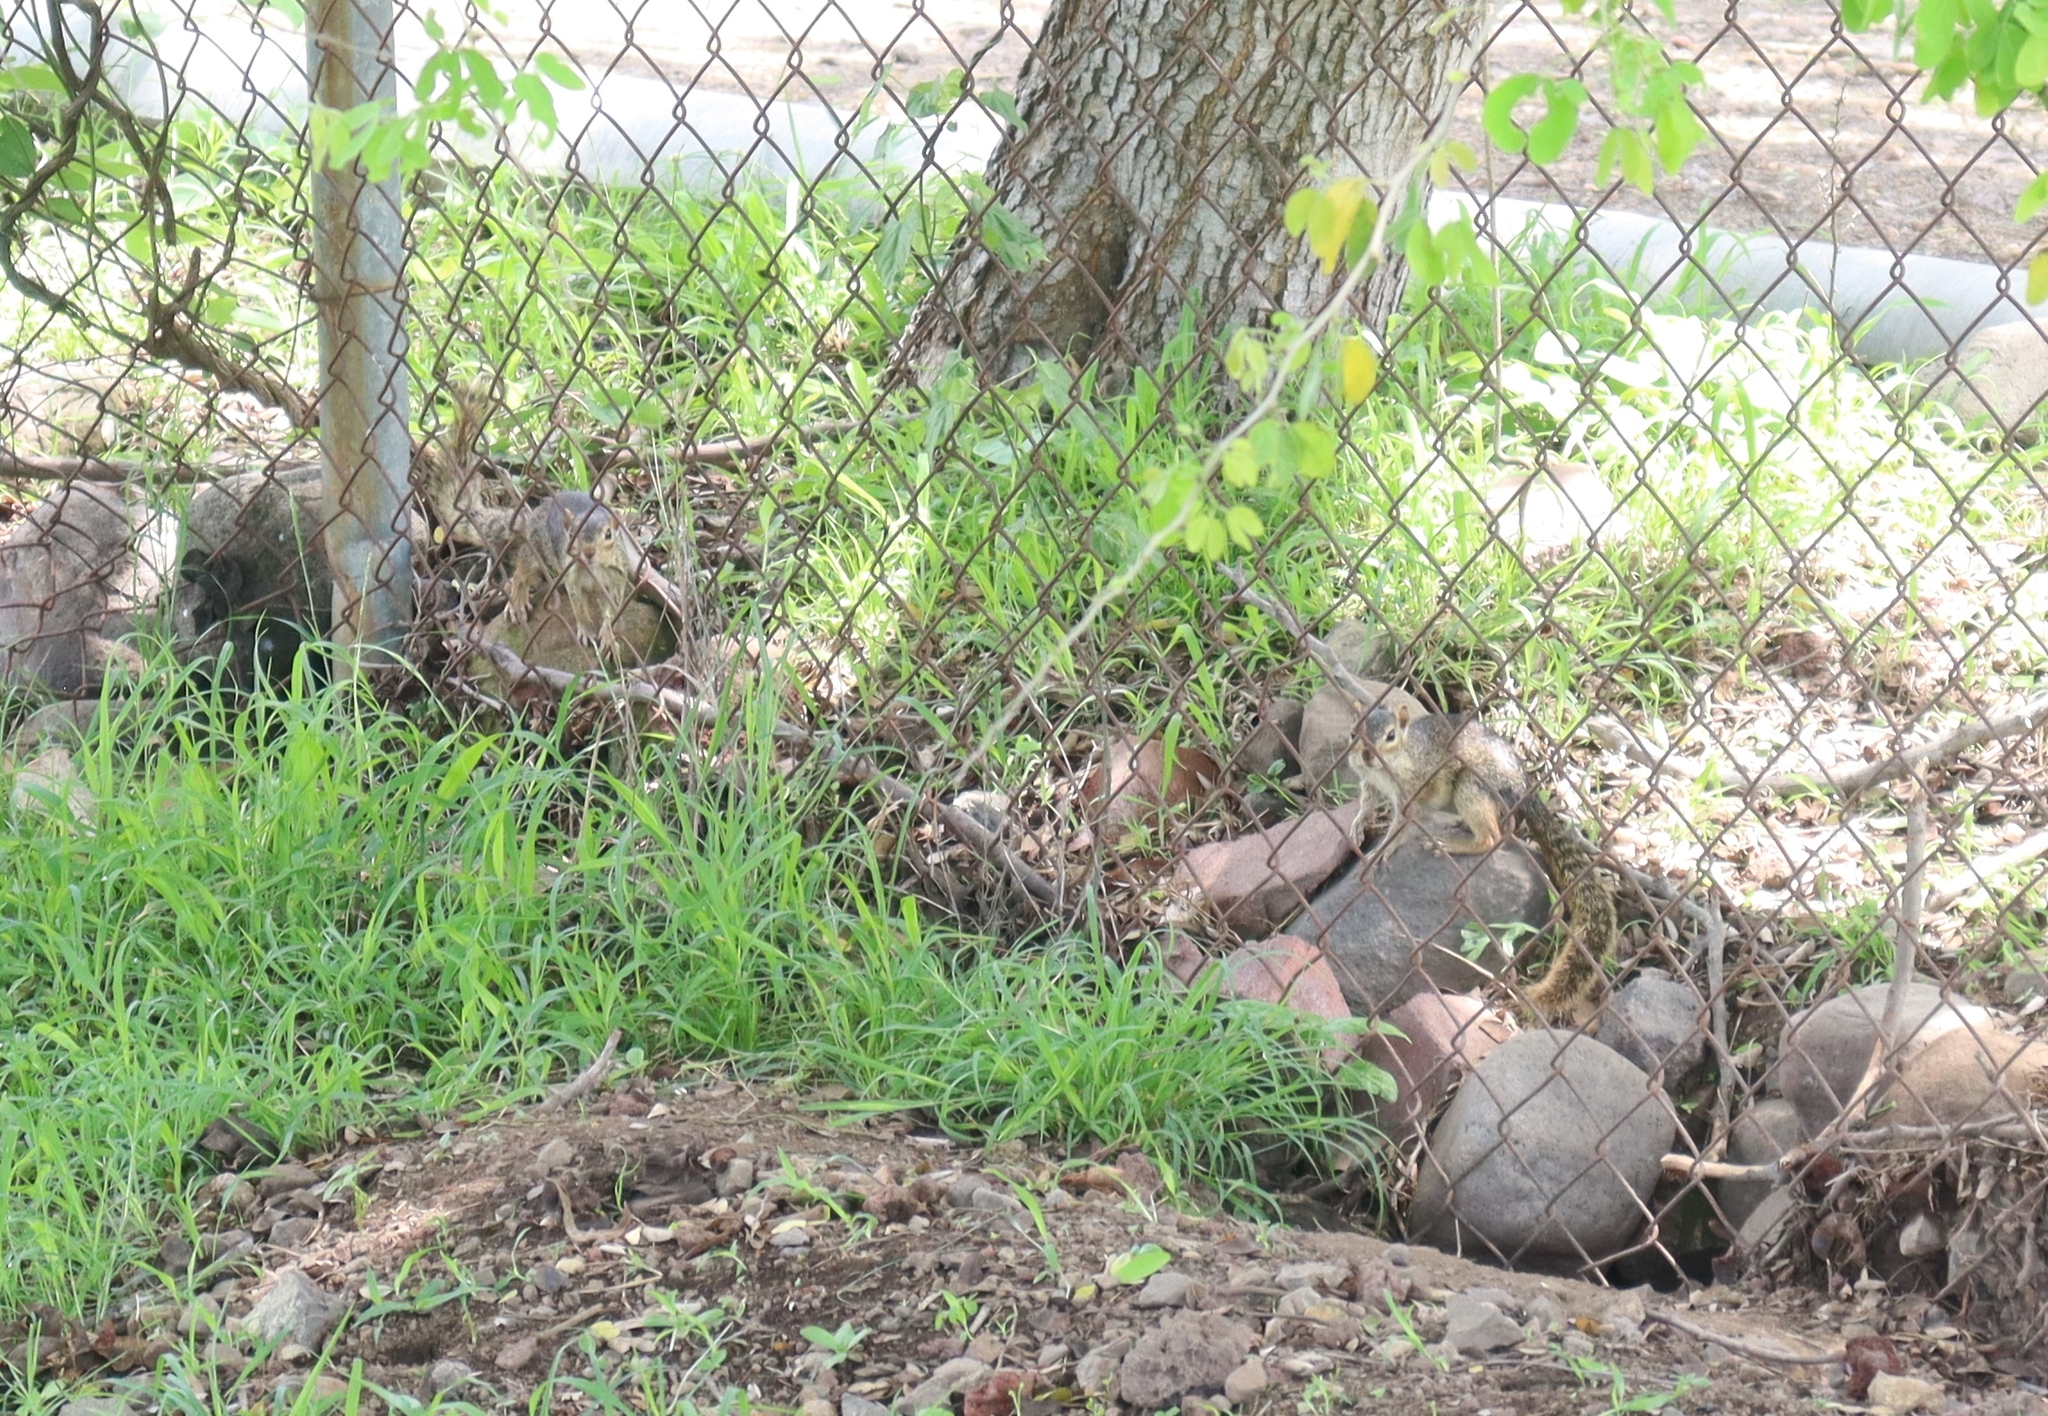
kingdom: Animalia
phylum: Chordata
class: Mammalia
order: Rodentia
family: Sciuridae
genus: Notocitellus
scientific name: Notocitellus annulatus
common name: Ring-tailed ground squirrel
